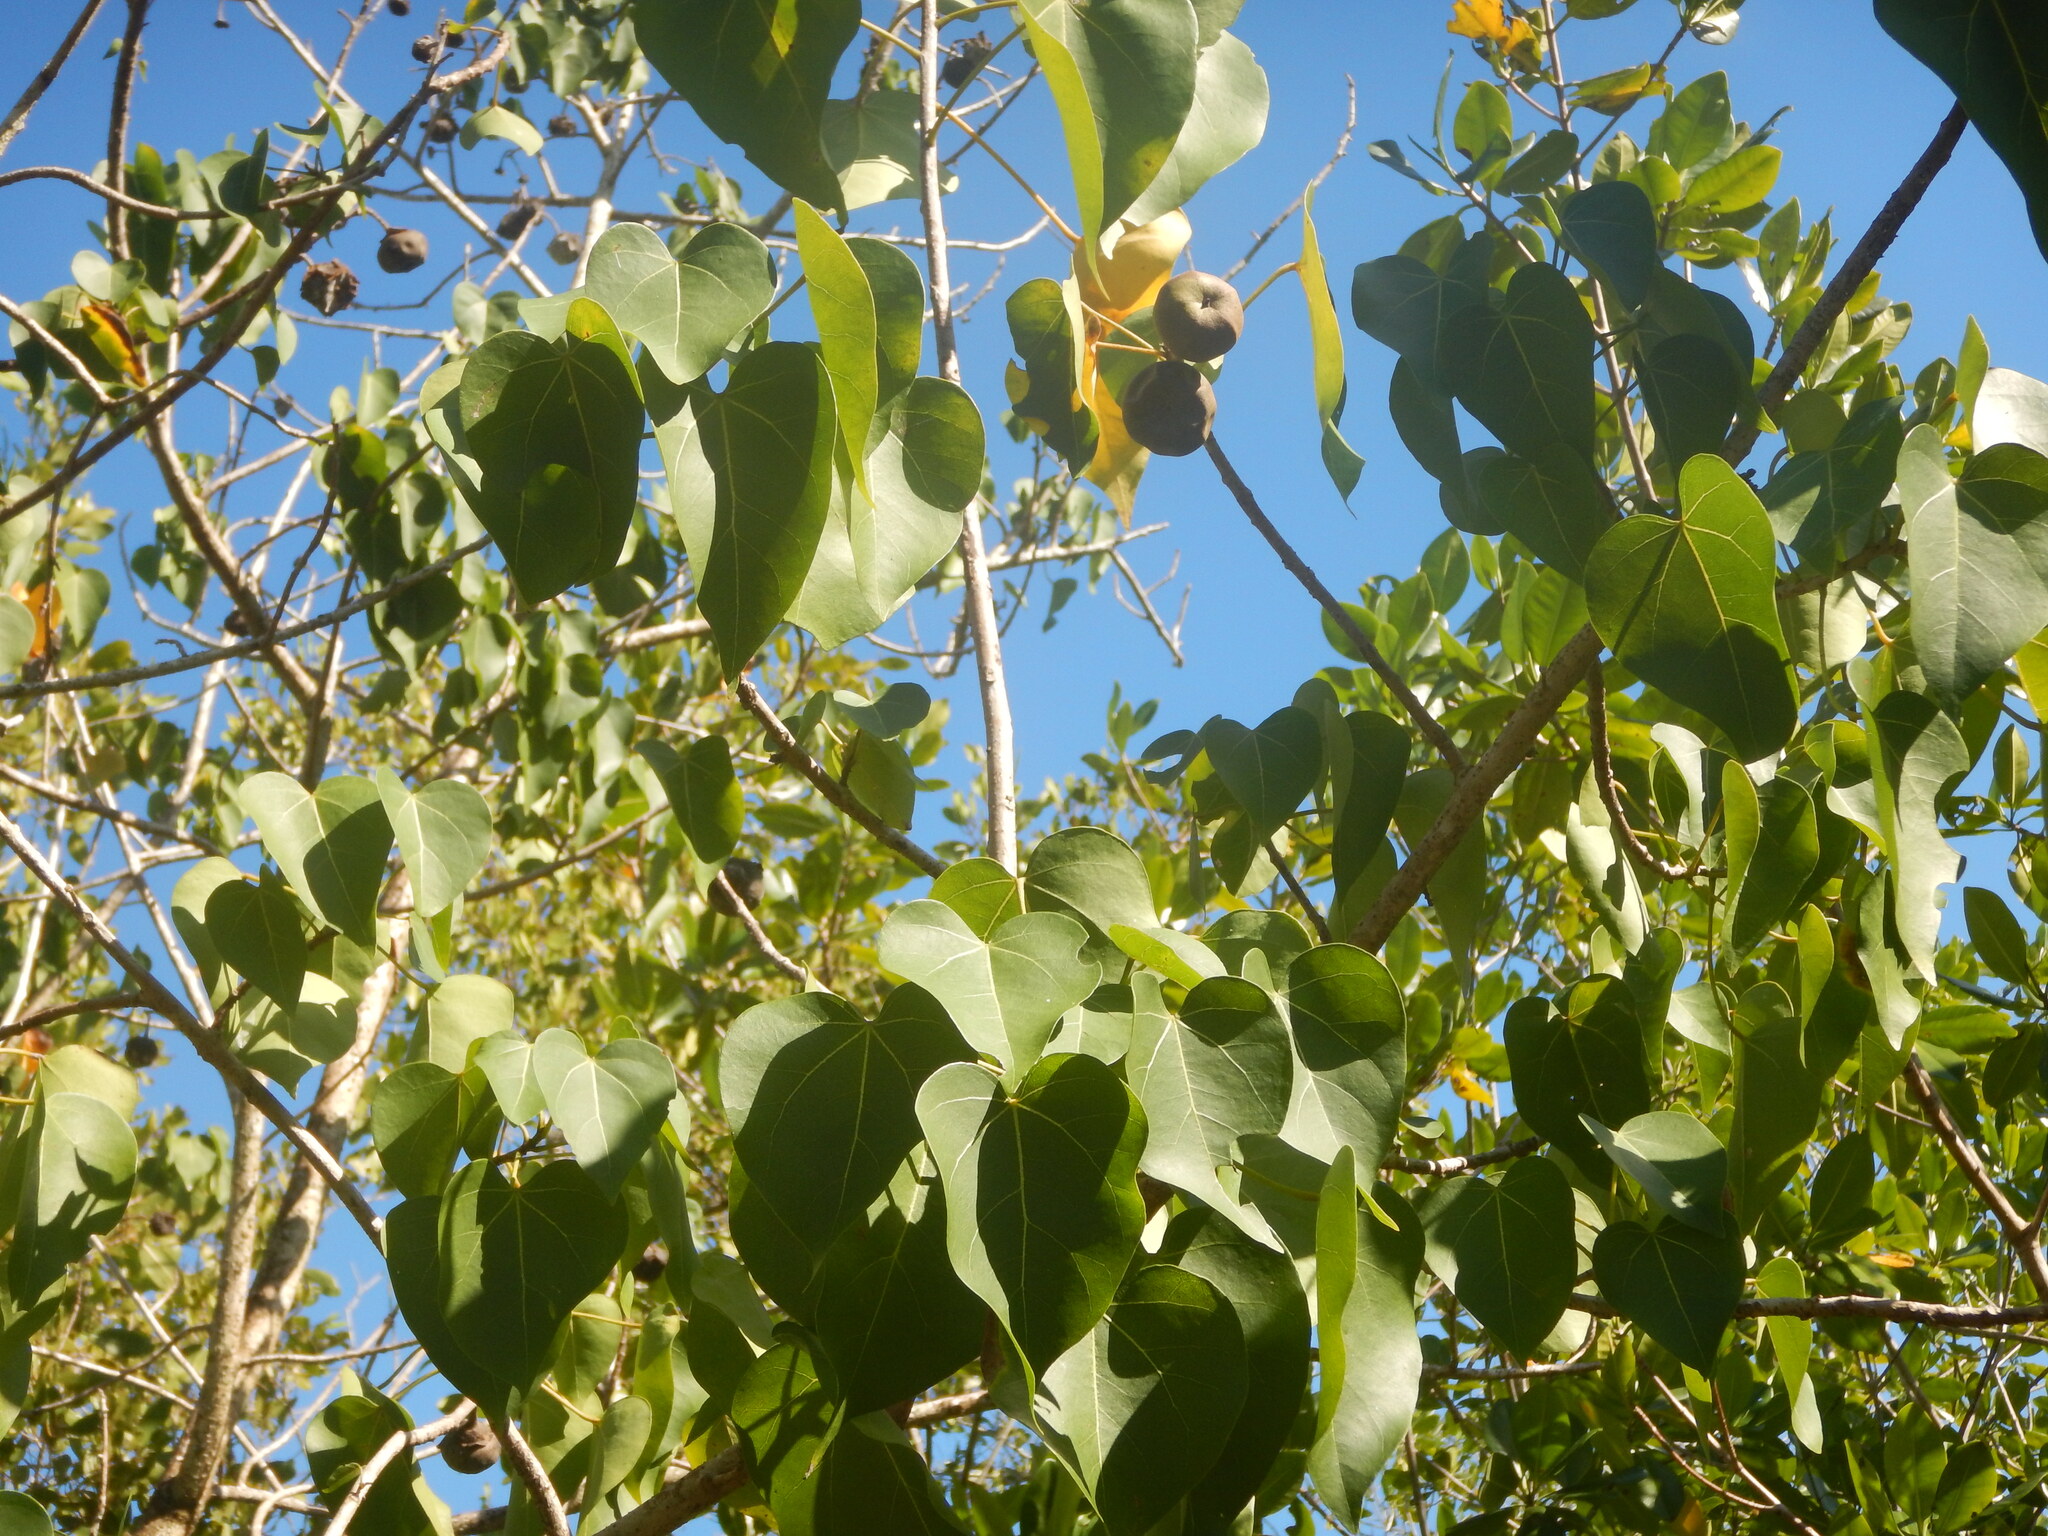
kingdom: Plantae
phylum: Tracheophyta
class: Magnoliopsida
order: Malvales
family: Malvaceae
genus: Thespesia
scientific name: Thespesia populnea
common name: Seaside mahoe
